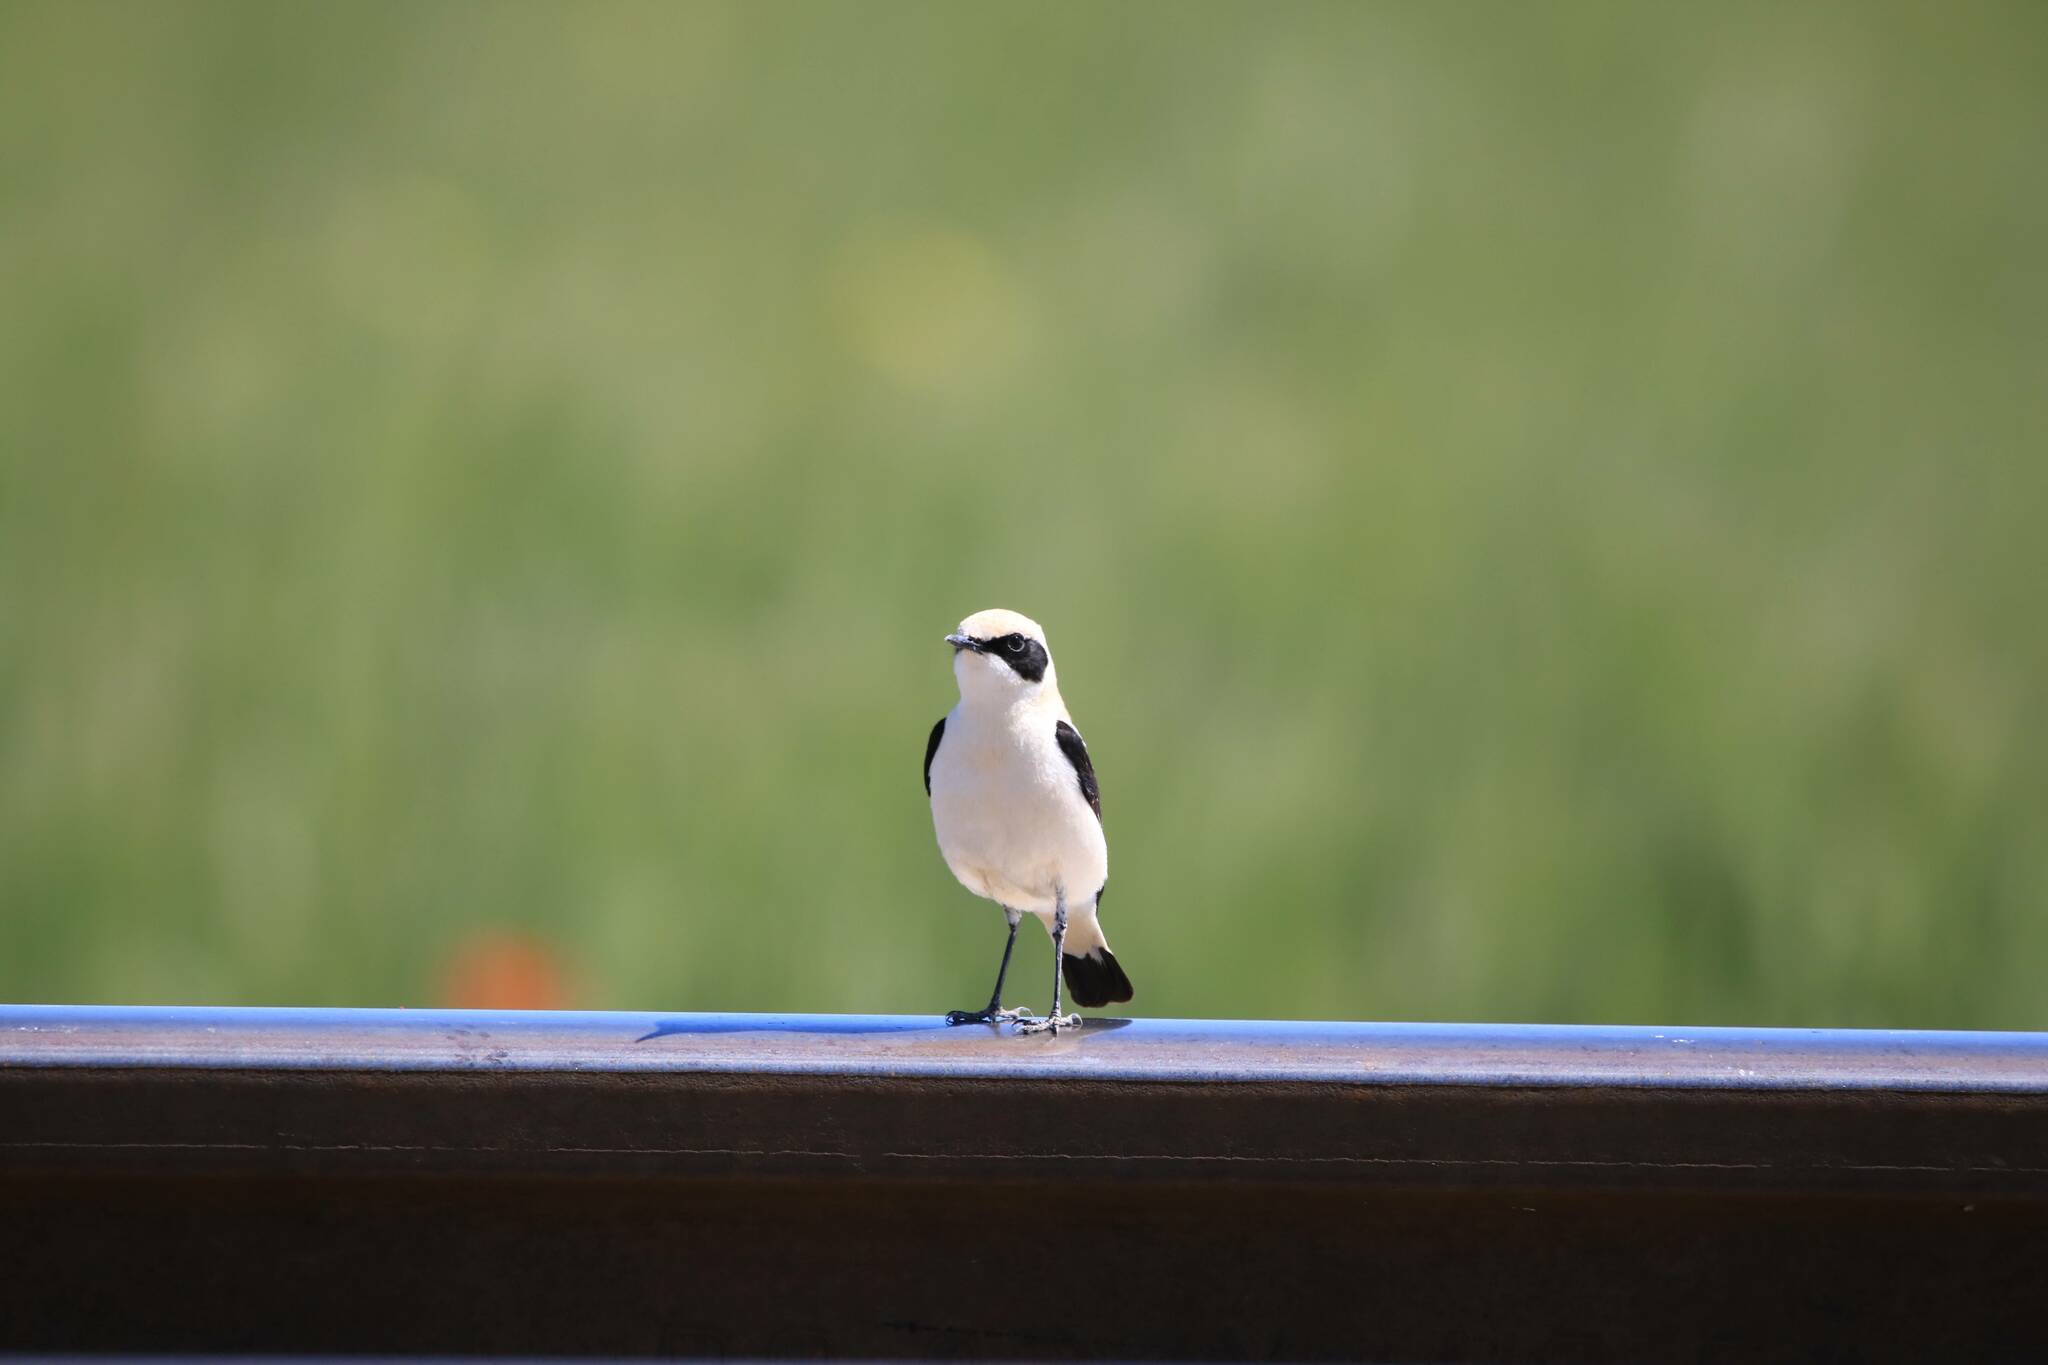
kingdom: Animalia
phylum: Chordata
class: Aves
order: Passeriformes
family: Muscicapidae
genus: Oenanthe
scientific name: Oenanthe hispanica
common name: Black-eared wheatear
